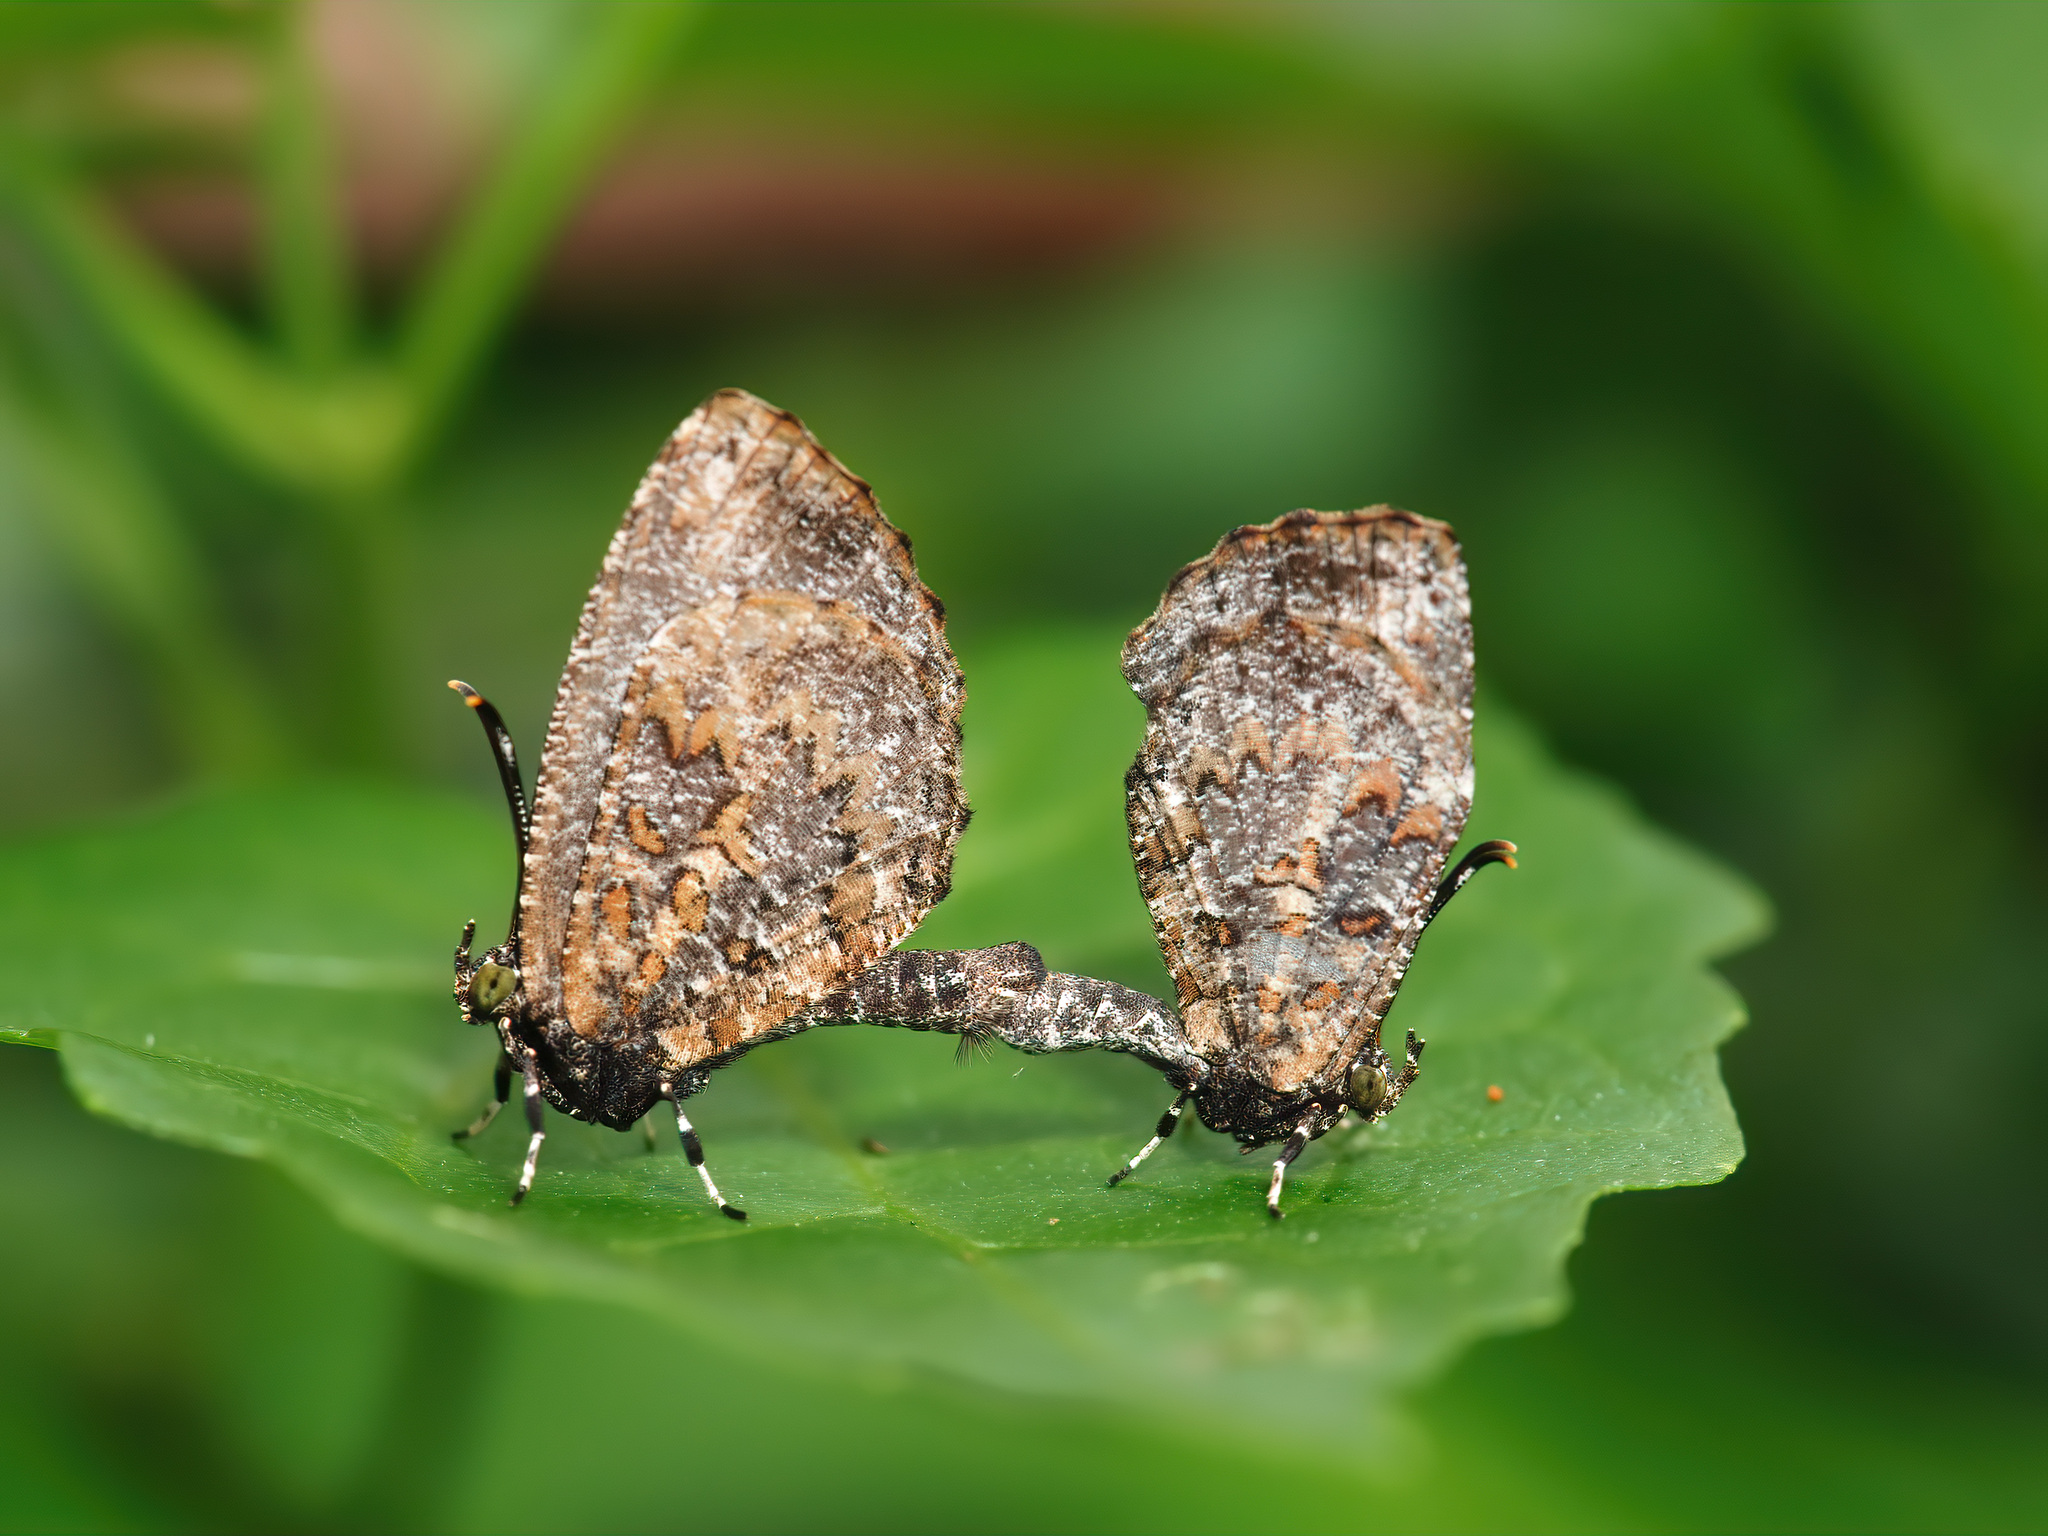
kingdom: Animalia
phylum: Arthropoda
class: Insecta
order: Lepidoptera
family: Lycaenidae
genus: Logania
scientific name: Logania marmorata
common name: Pale mottle
